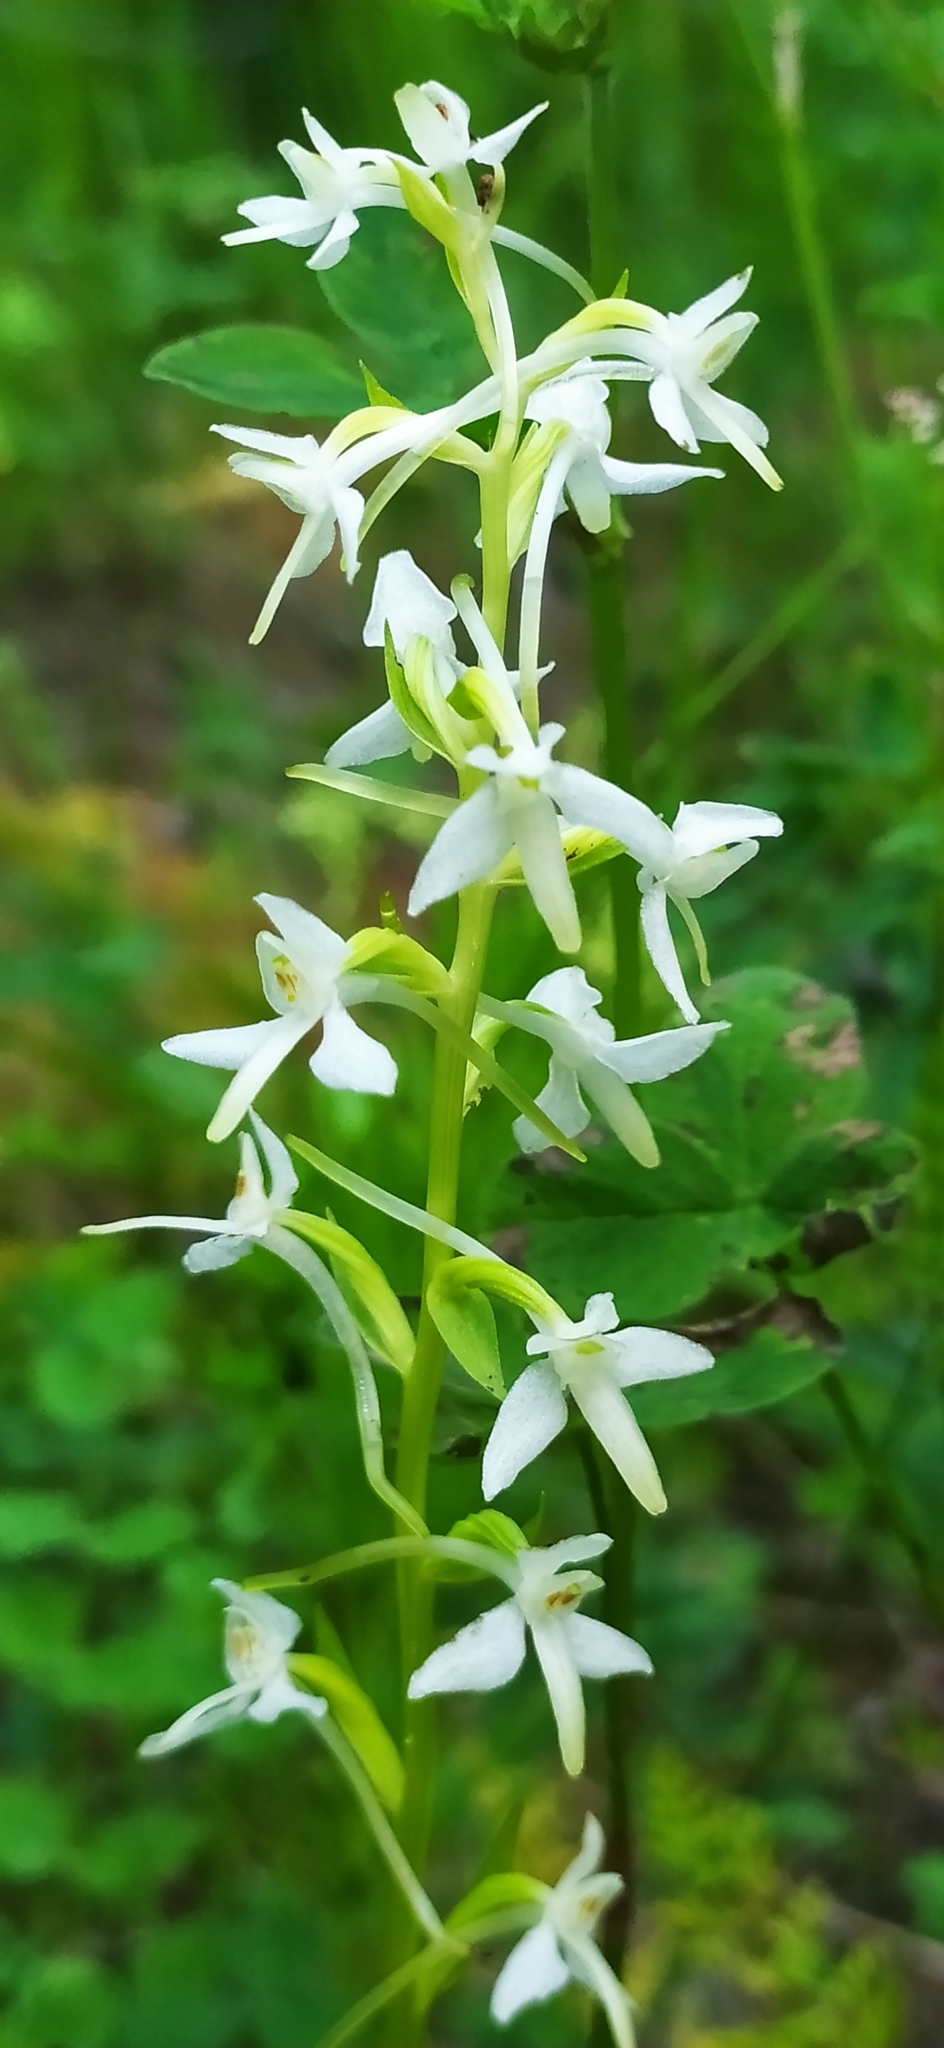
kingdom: Plantae
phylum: Tracheophyta
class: Liliopsida
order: Asparagales
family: Orchidaceae
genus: Platanthera
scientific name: Platanthera bifolia
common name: Lesser butterfly-orchid
